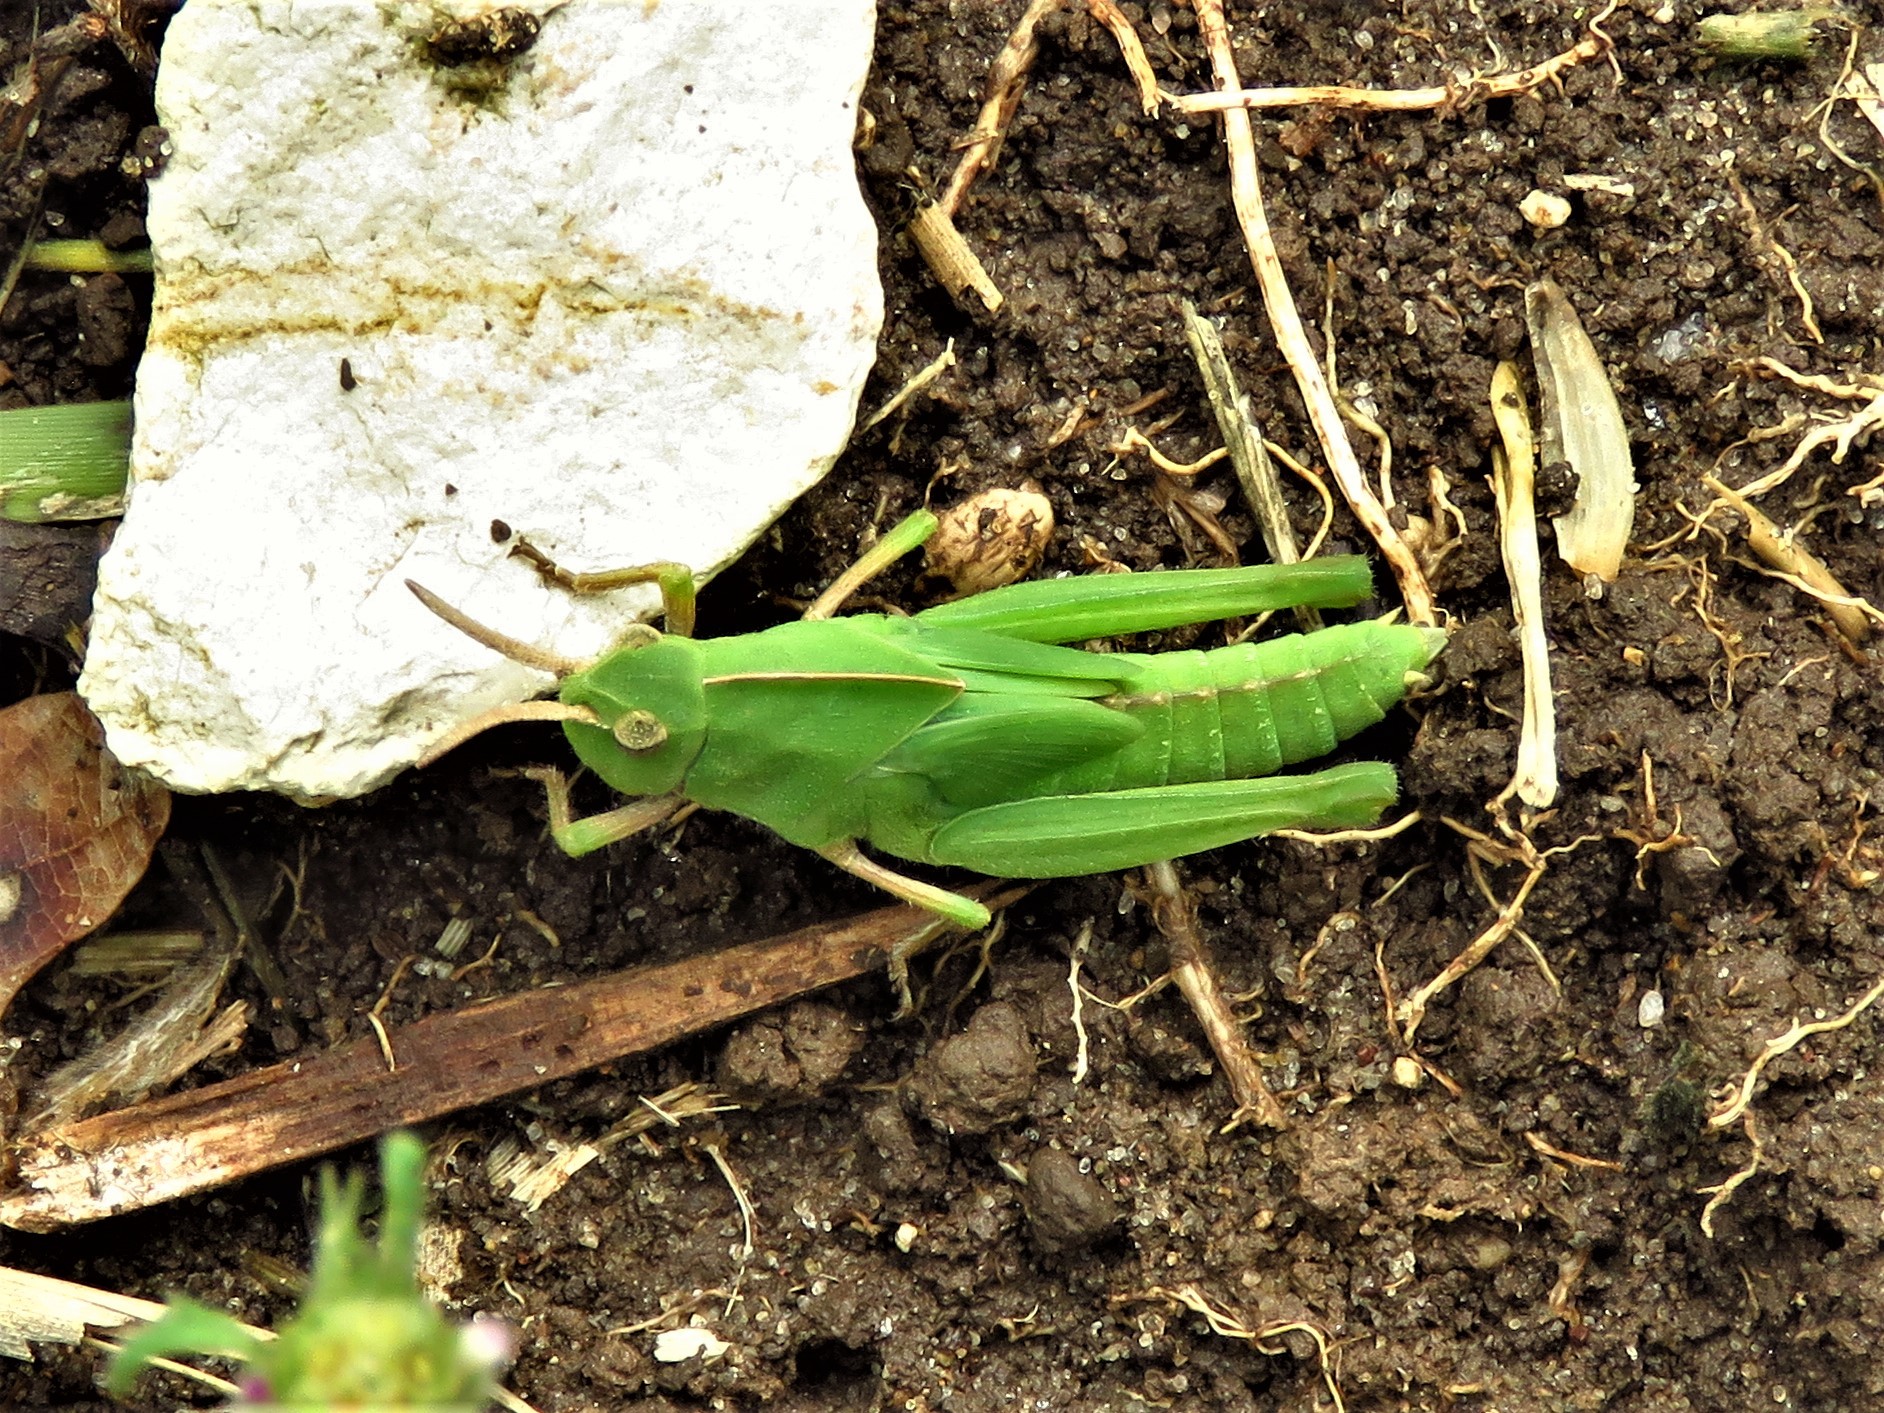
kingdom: Animalia
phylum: Arthropoda
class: Insecta
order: Orthoptera
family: Acrididae
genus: Chortophaga
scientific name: Chortophaga viridifasciata
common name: Green-striped grasshopper
